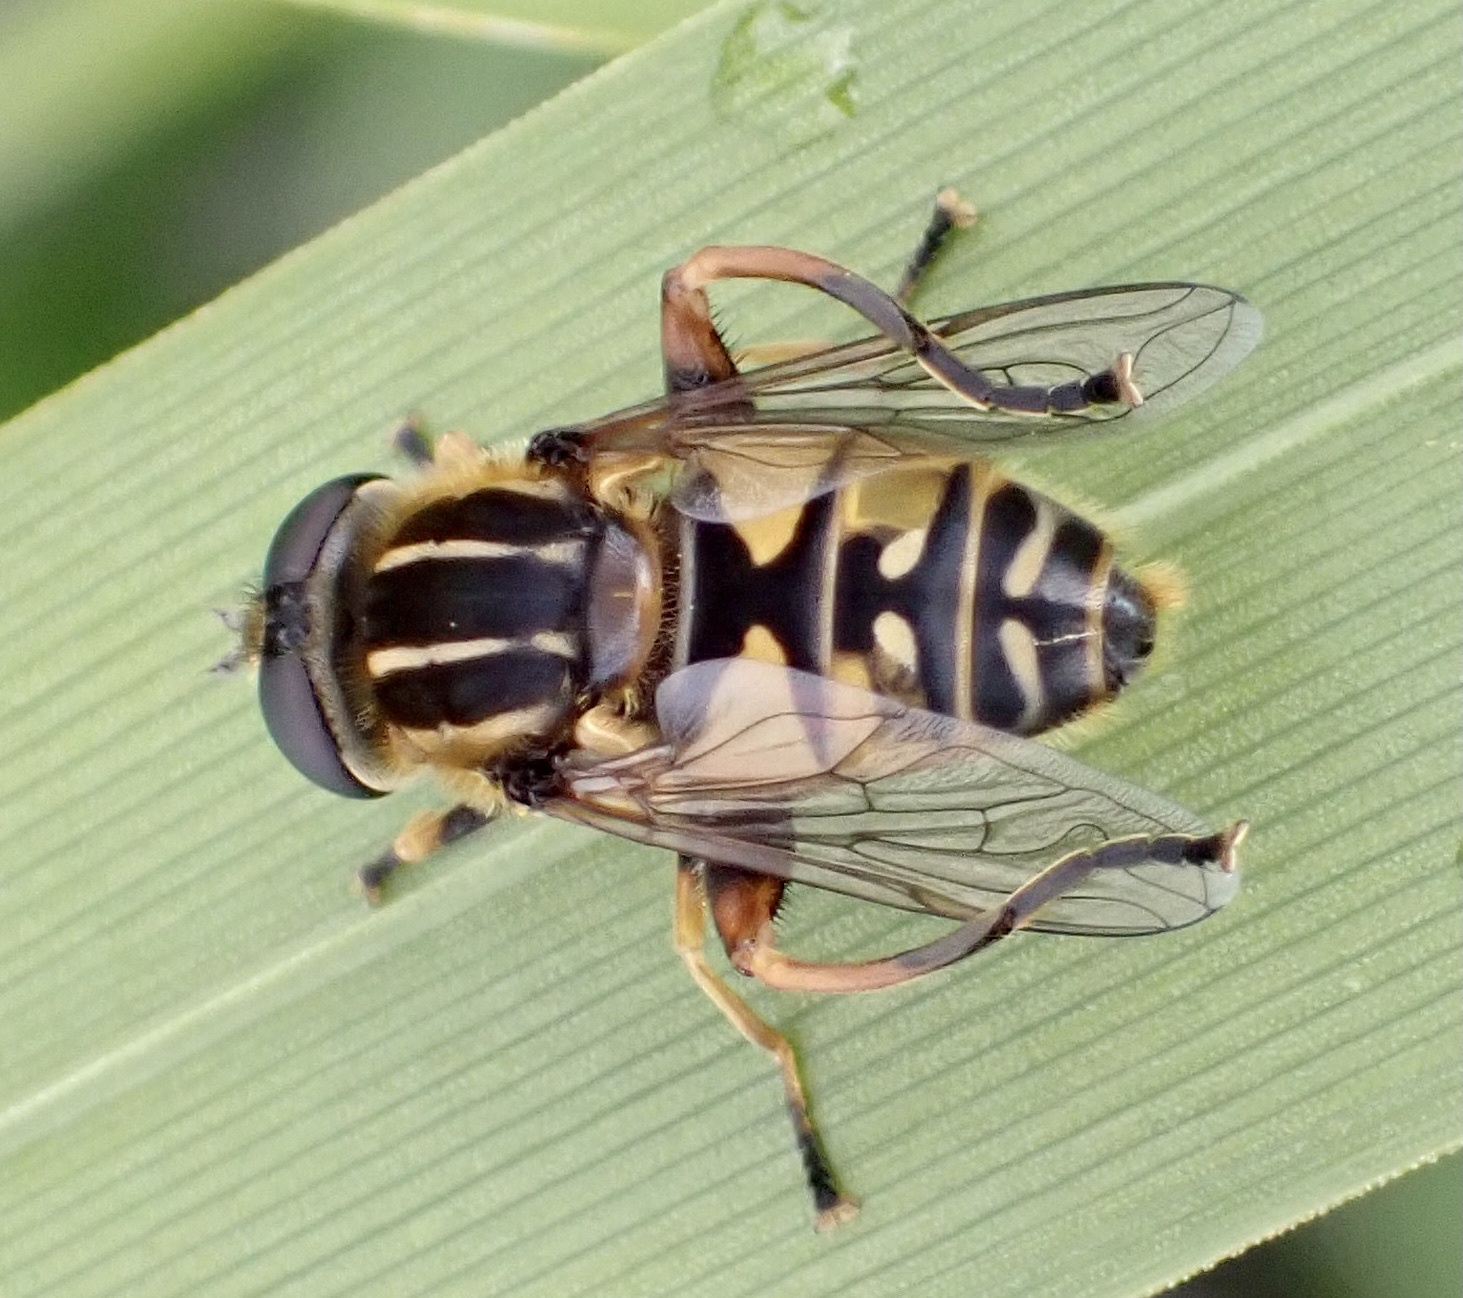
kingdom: Animalia
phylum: Arthropoda
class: Insecta
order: Diptera
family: Syrphidae
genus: Helophilus
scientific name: Helophilus pendulus
